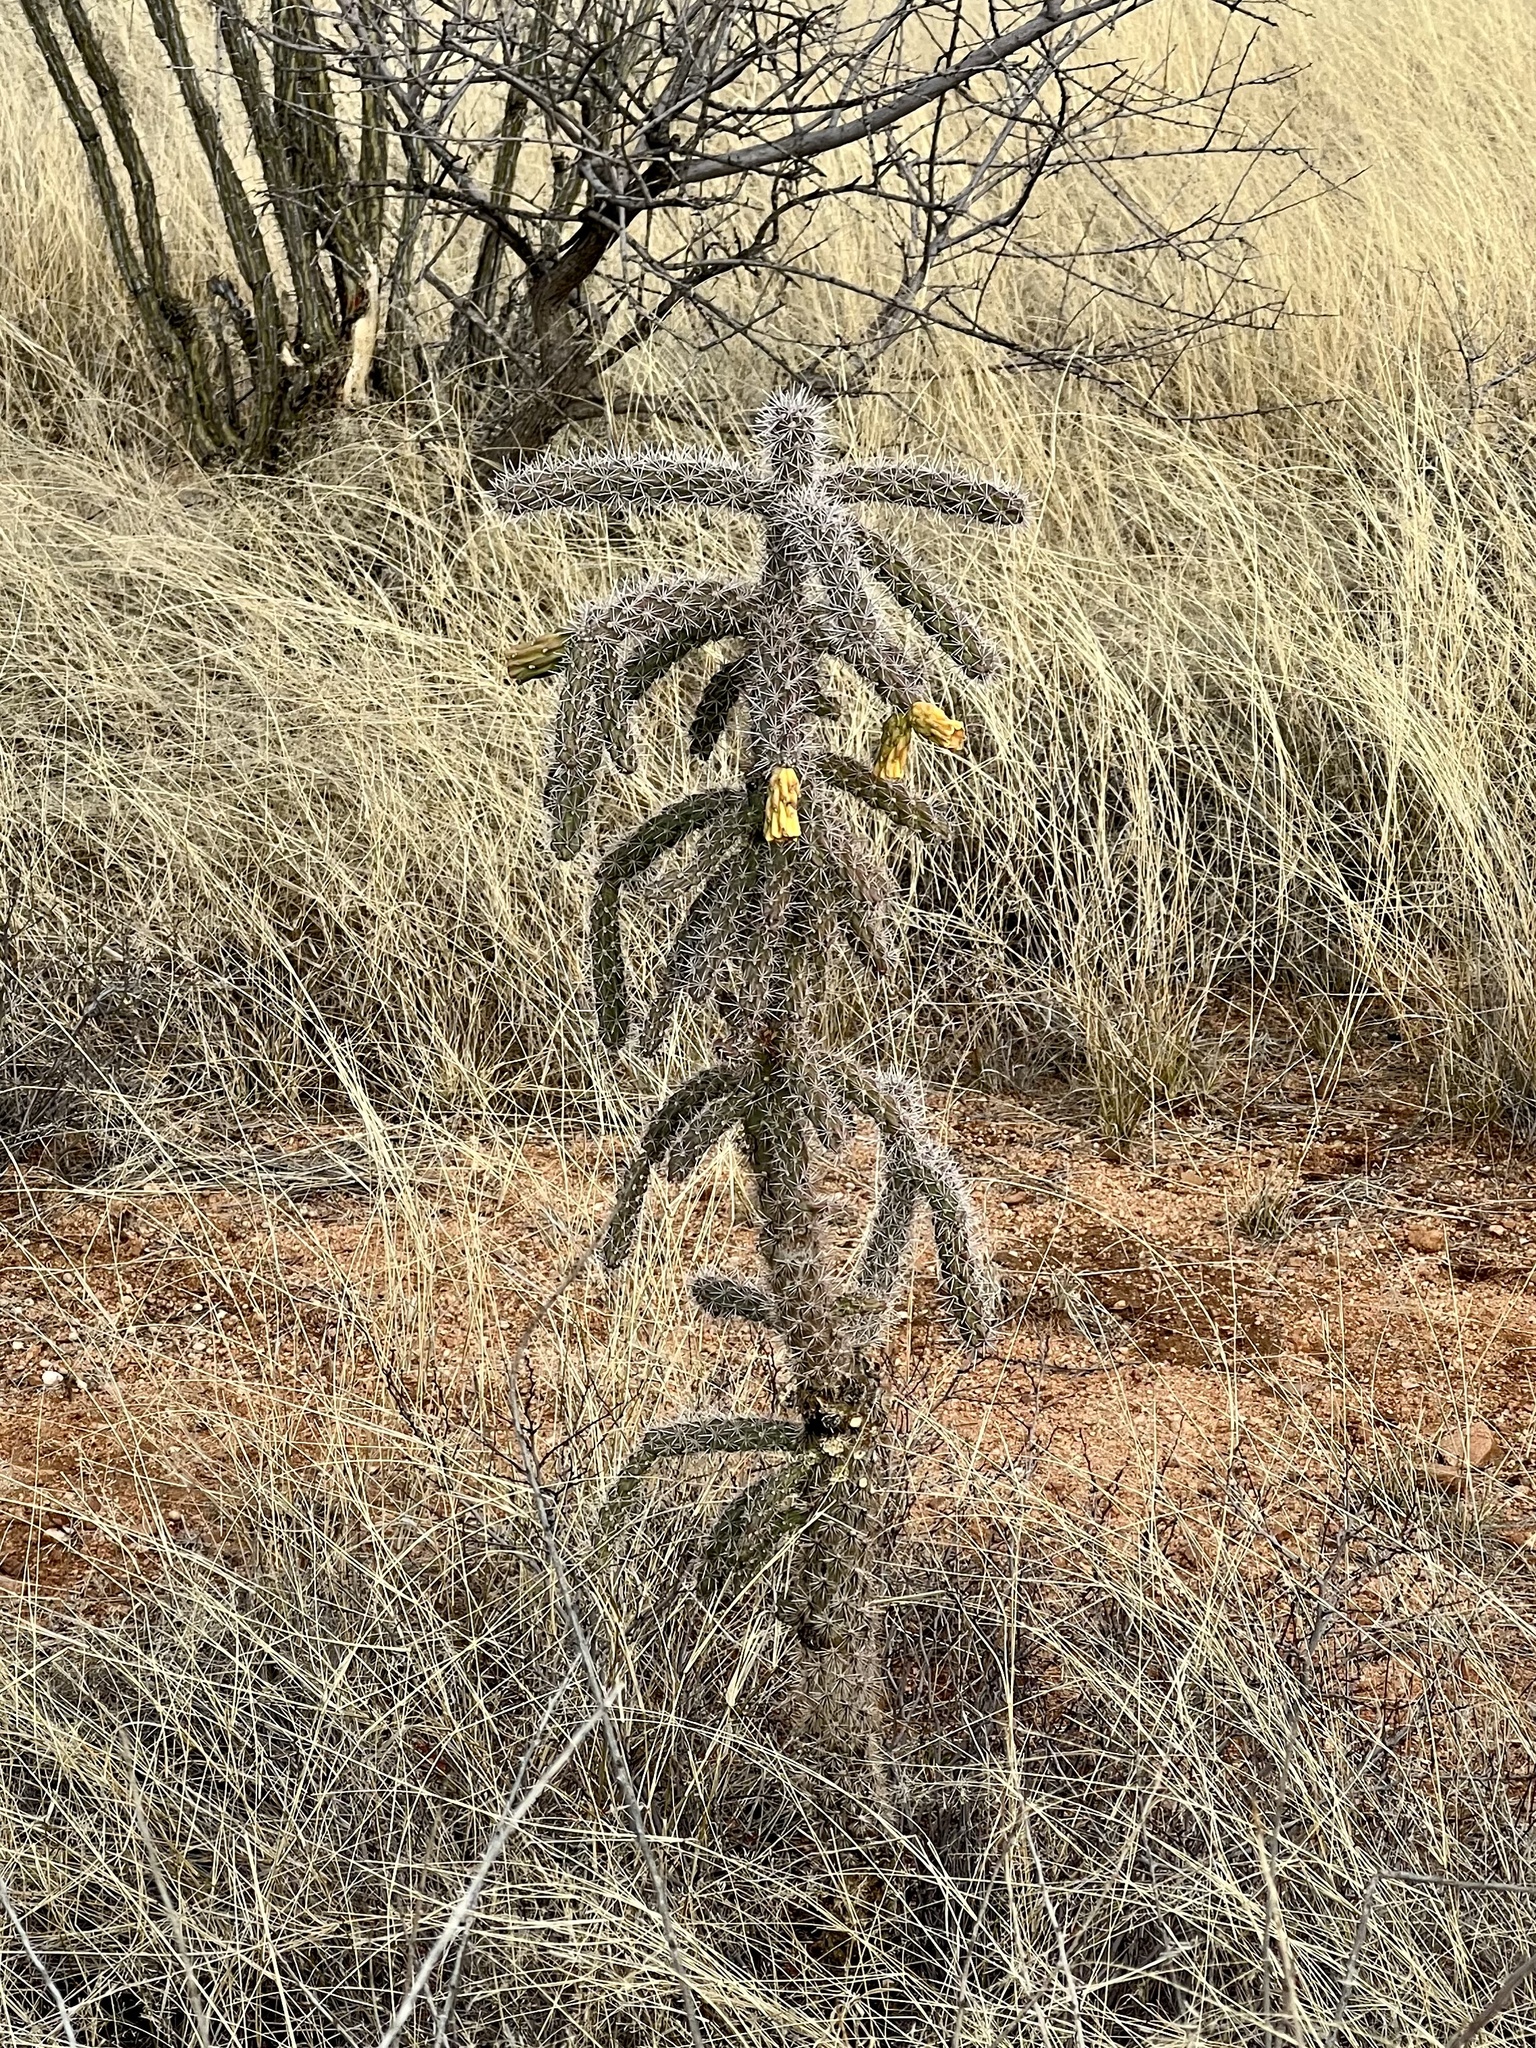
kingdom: Plantae
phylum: Tracheophyta
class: Magnoliopsida
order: Caryophyllales
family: Cactaceae
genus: Cylindropuntia
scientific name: Cylindropuntia imbricata
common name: Candelabrum cactus
